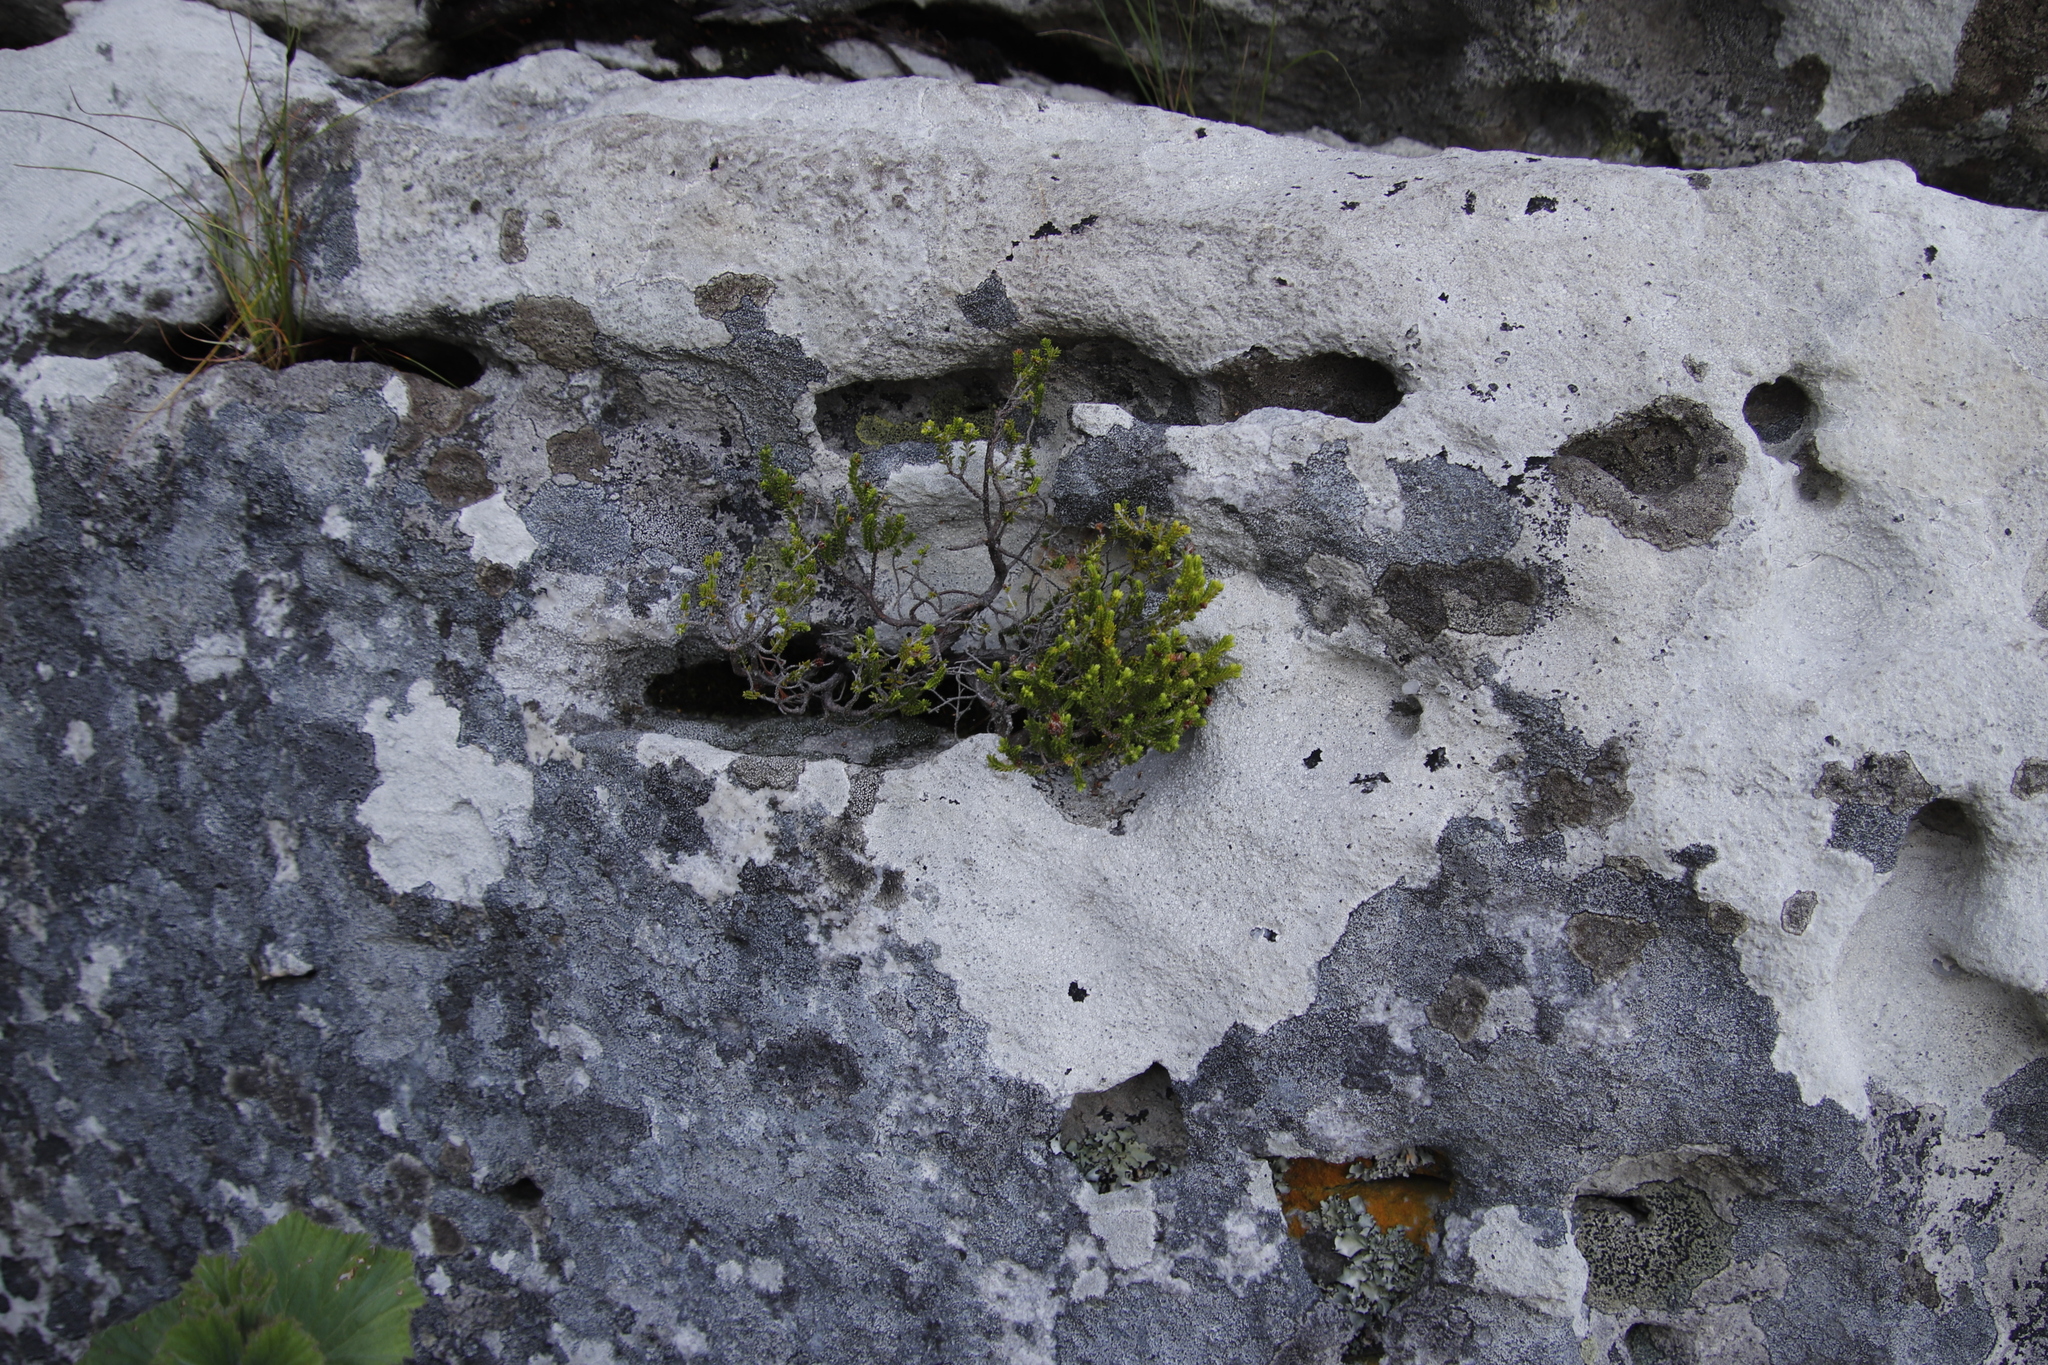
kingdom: Plantae
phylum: Tracheophyta
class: Magnoliopsida
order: Ericales
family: Ericaceae
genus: Erica
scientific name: Erica annectens
